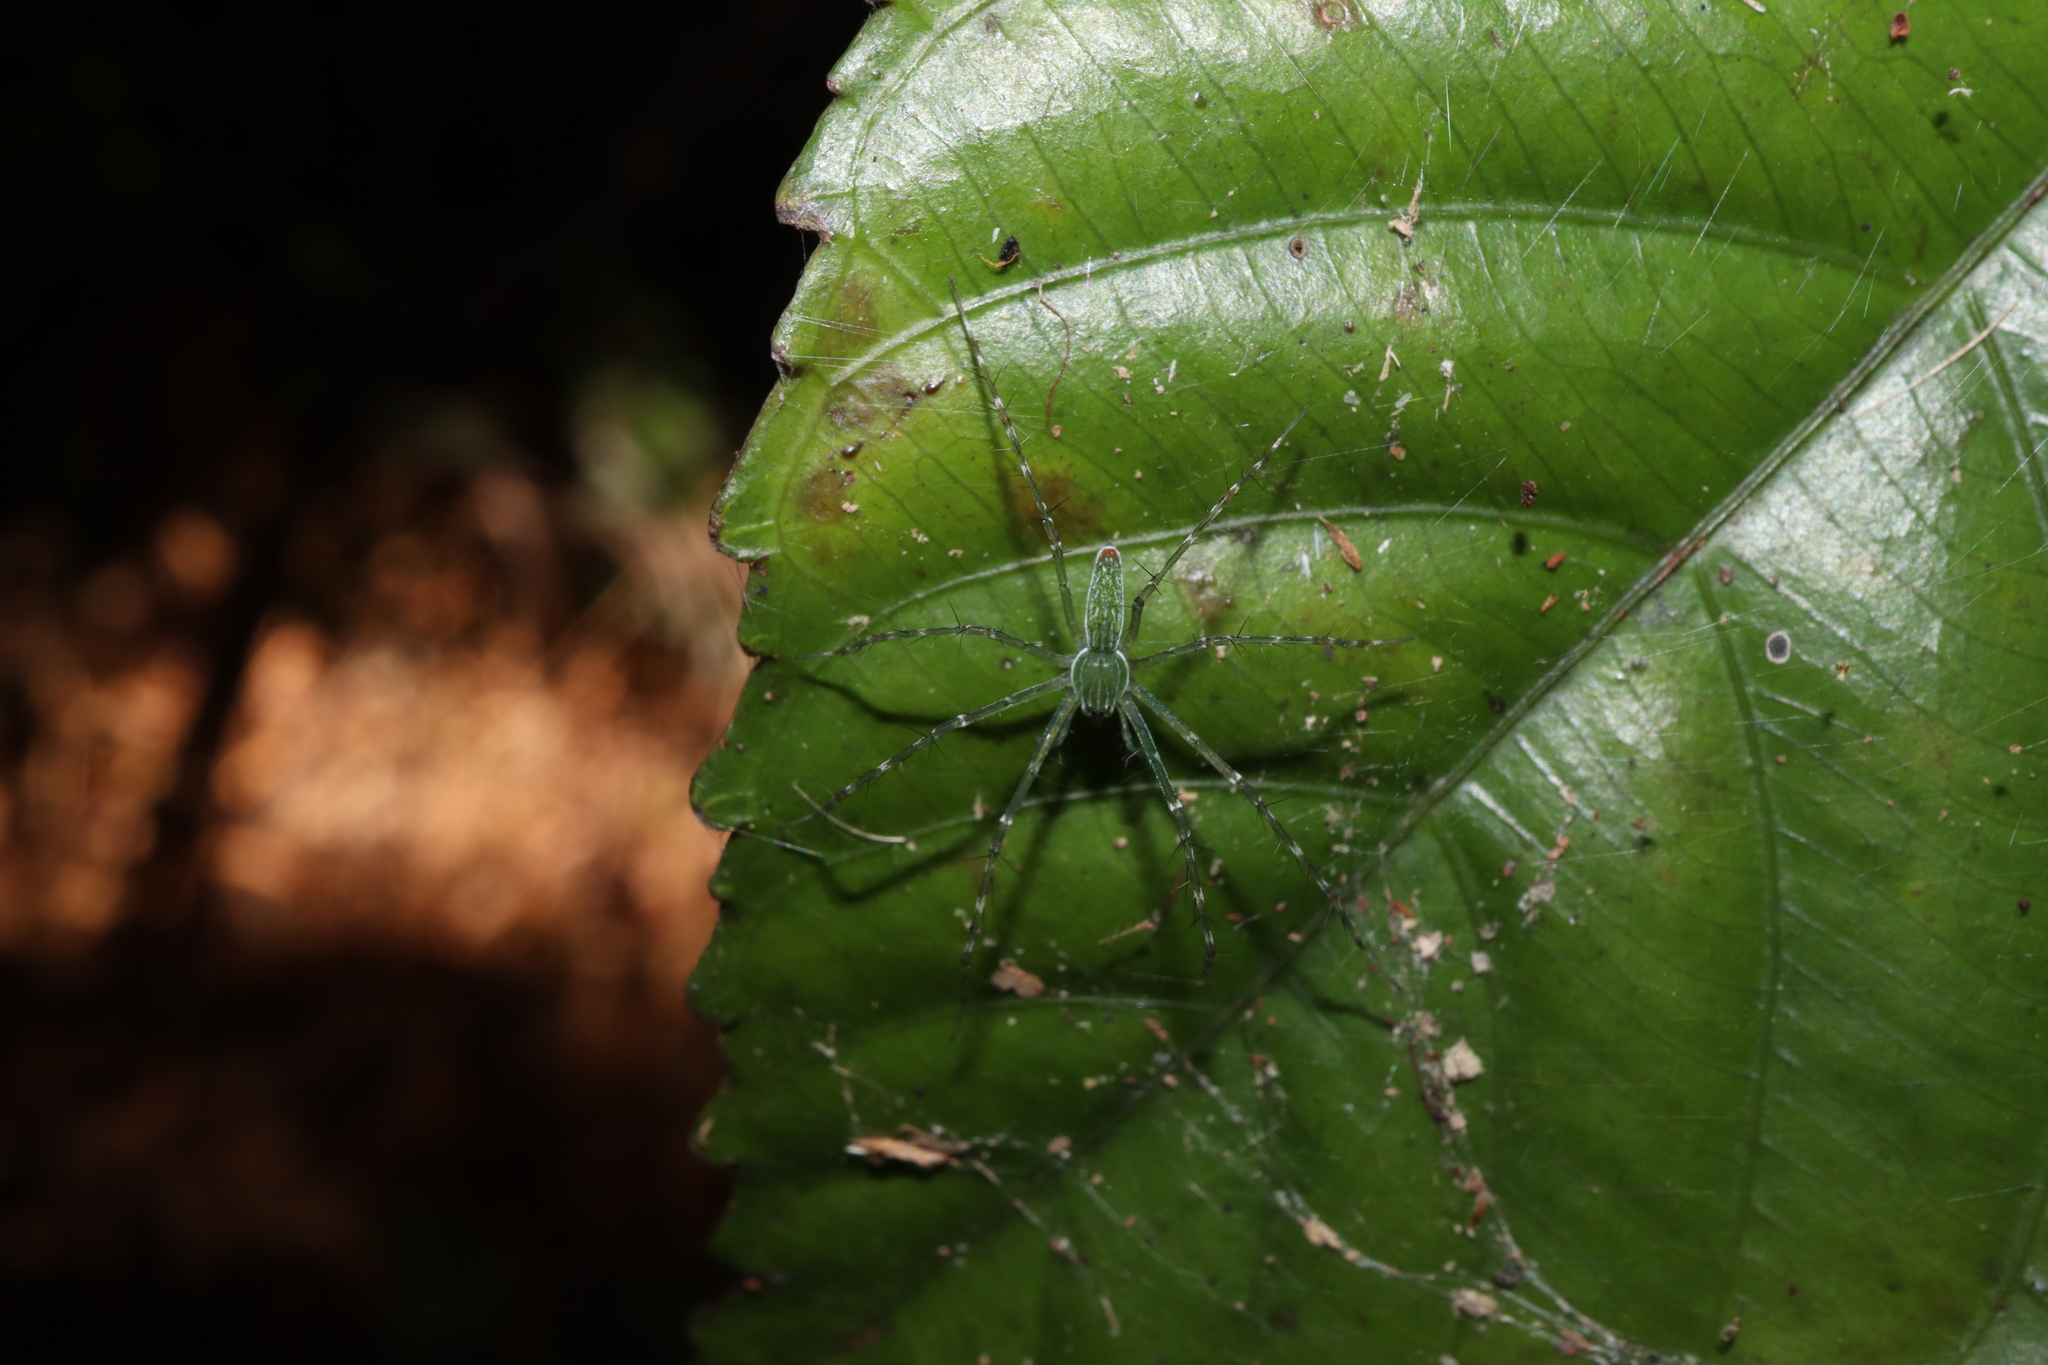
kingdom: Animalia
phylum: Arthropoda
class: Arachnida
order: Araneae
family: Pisauridae
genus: Hygropoda
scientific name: Hygropoda lineata
